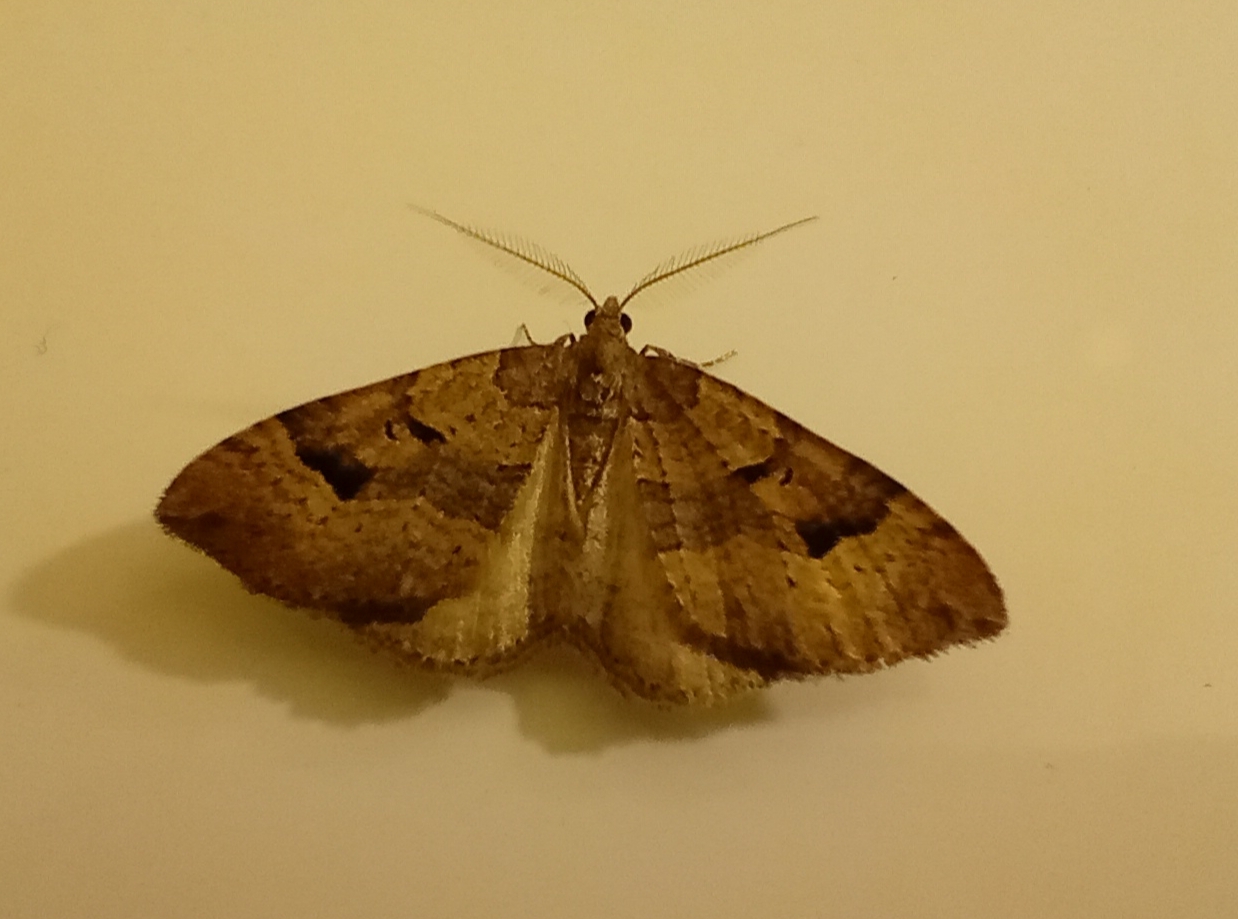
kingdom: Animalia
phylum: Arthropoda
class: Insecta
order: Lepidoptera
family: Geometridae
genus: Epyaxa
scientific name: Epyaxa rosearia
